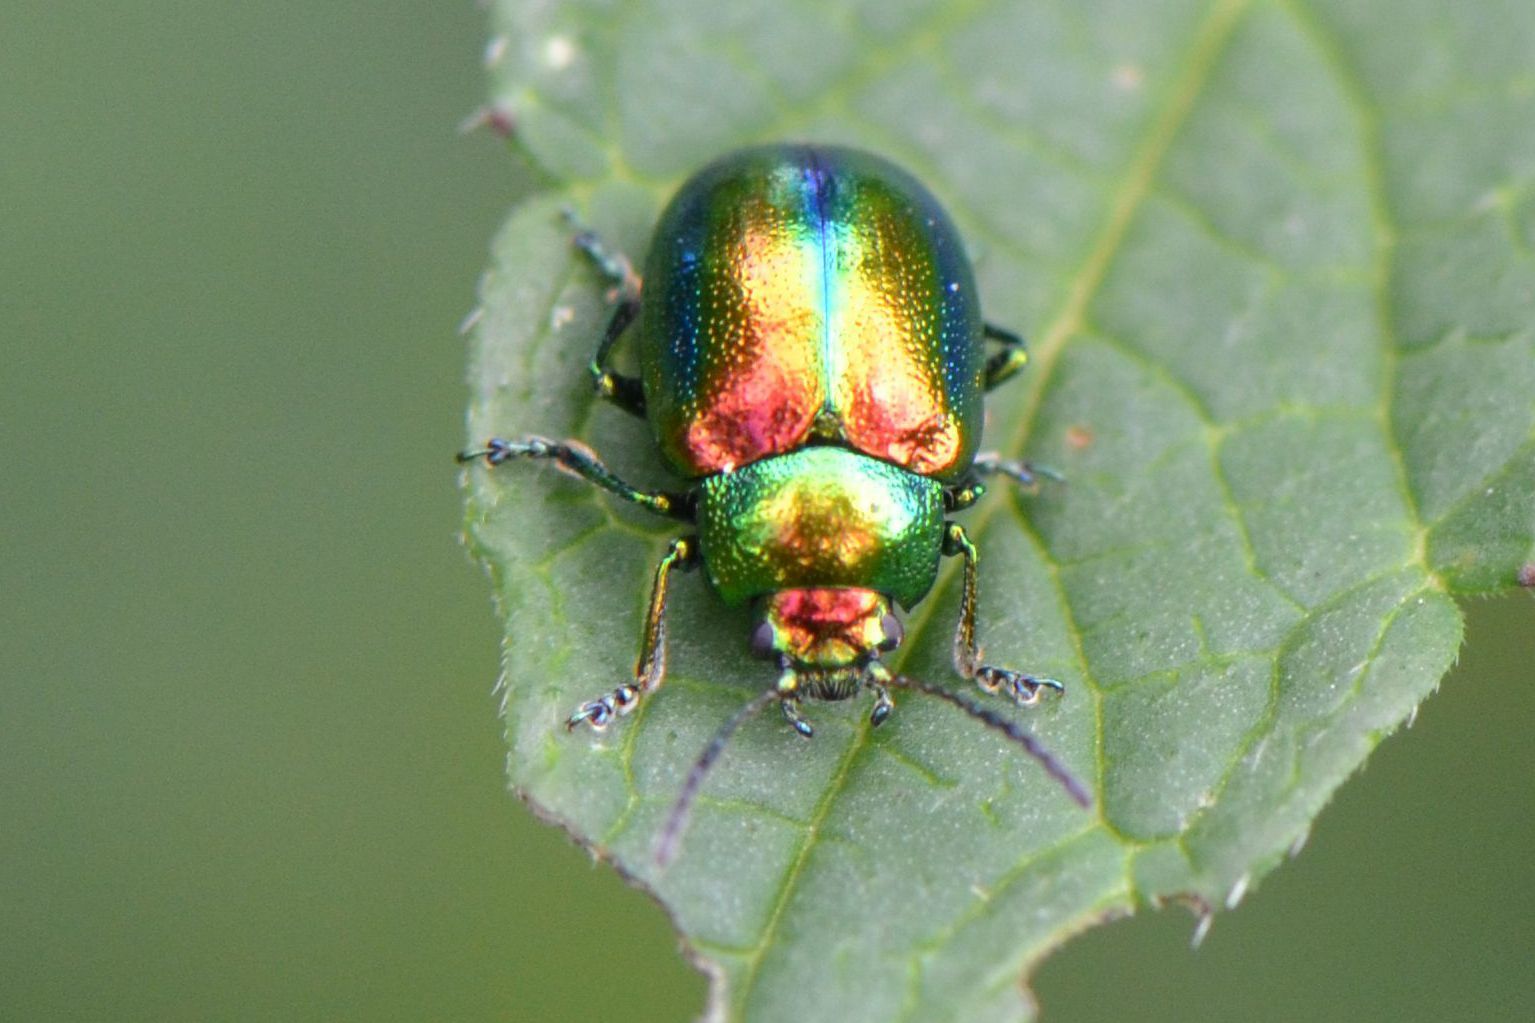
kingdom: Animalia
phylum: Arthropoda
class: Insecta
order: Coleoptera
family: Chrysomelidae
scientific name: Chrysomelidae
